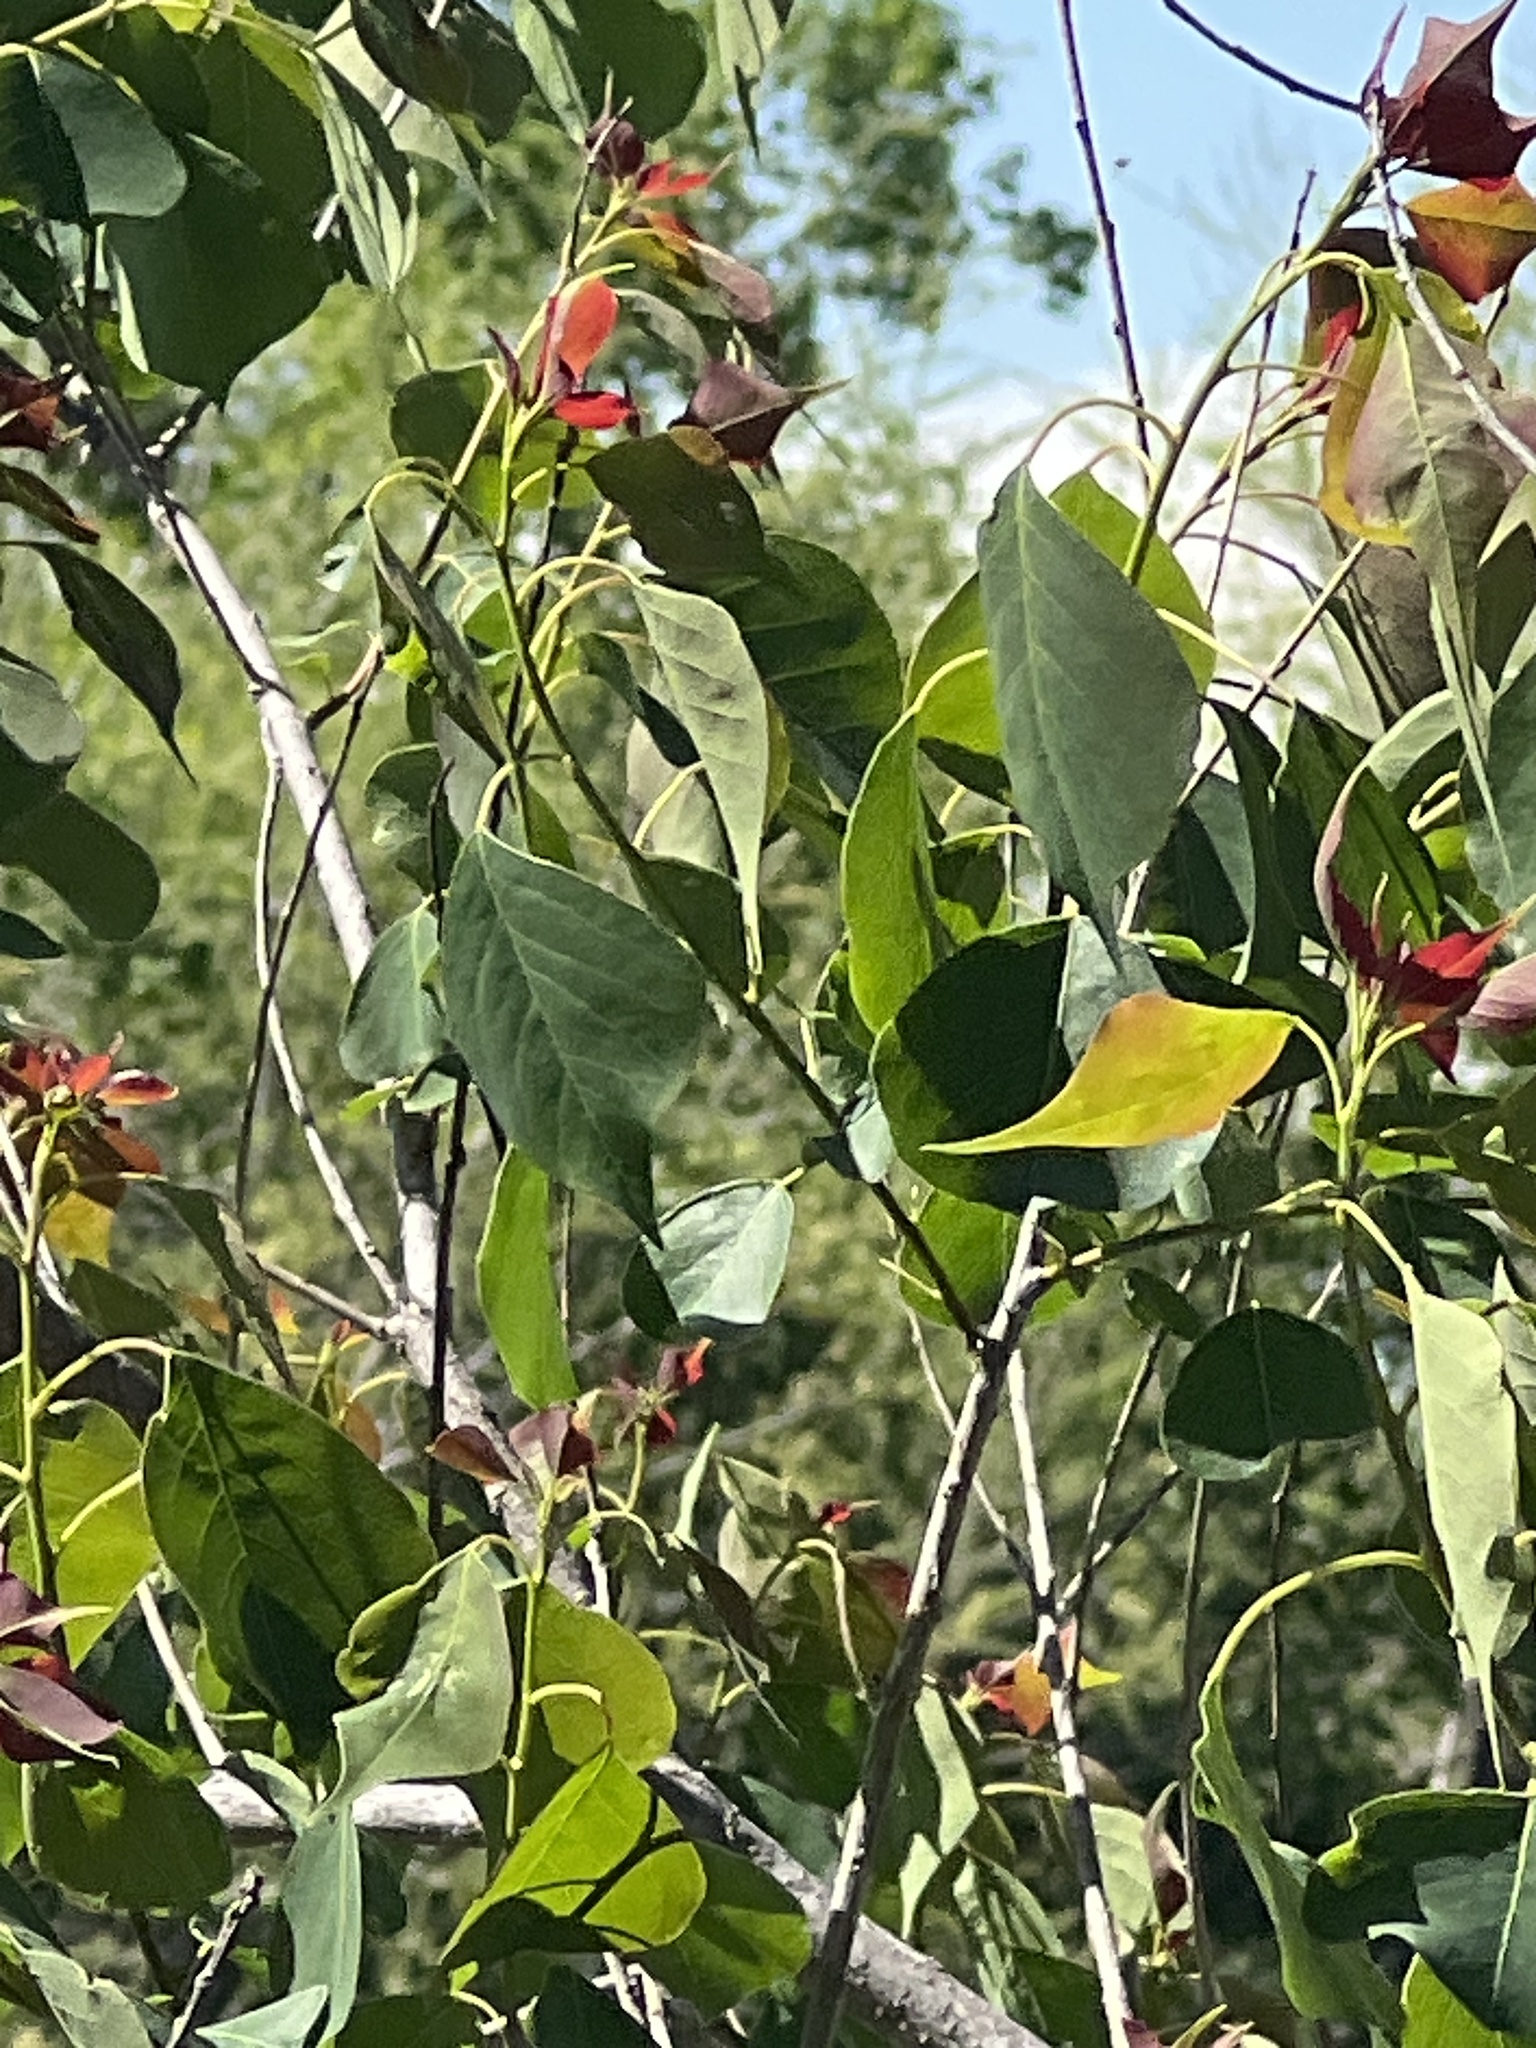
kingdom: Plantae
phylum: Tracheophyta
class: Magnoliopsida
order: Malpighiales
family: Euphorbiaceae
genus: Triadica
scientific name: Triadica sebifera
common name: Chinese tallow
